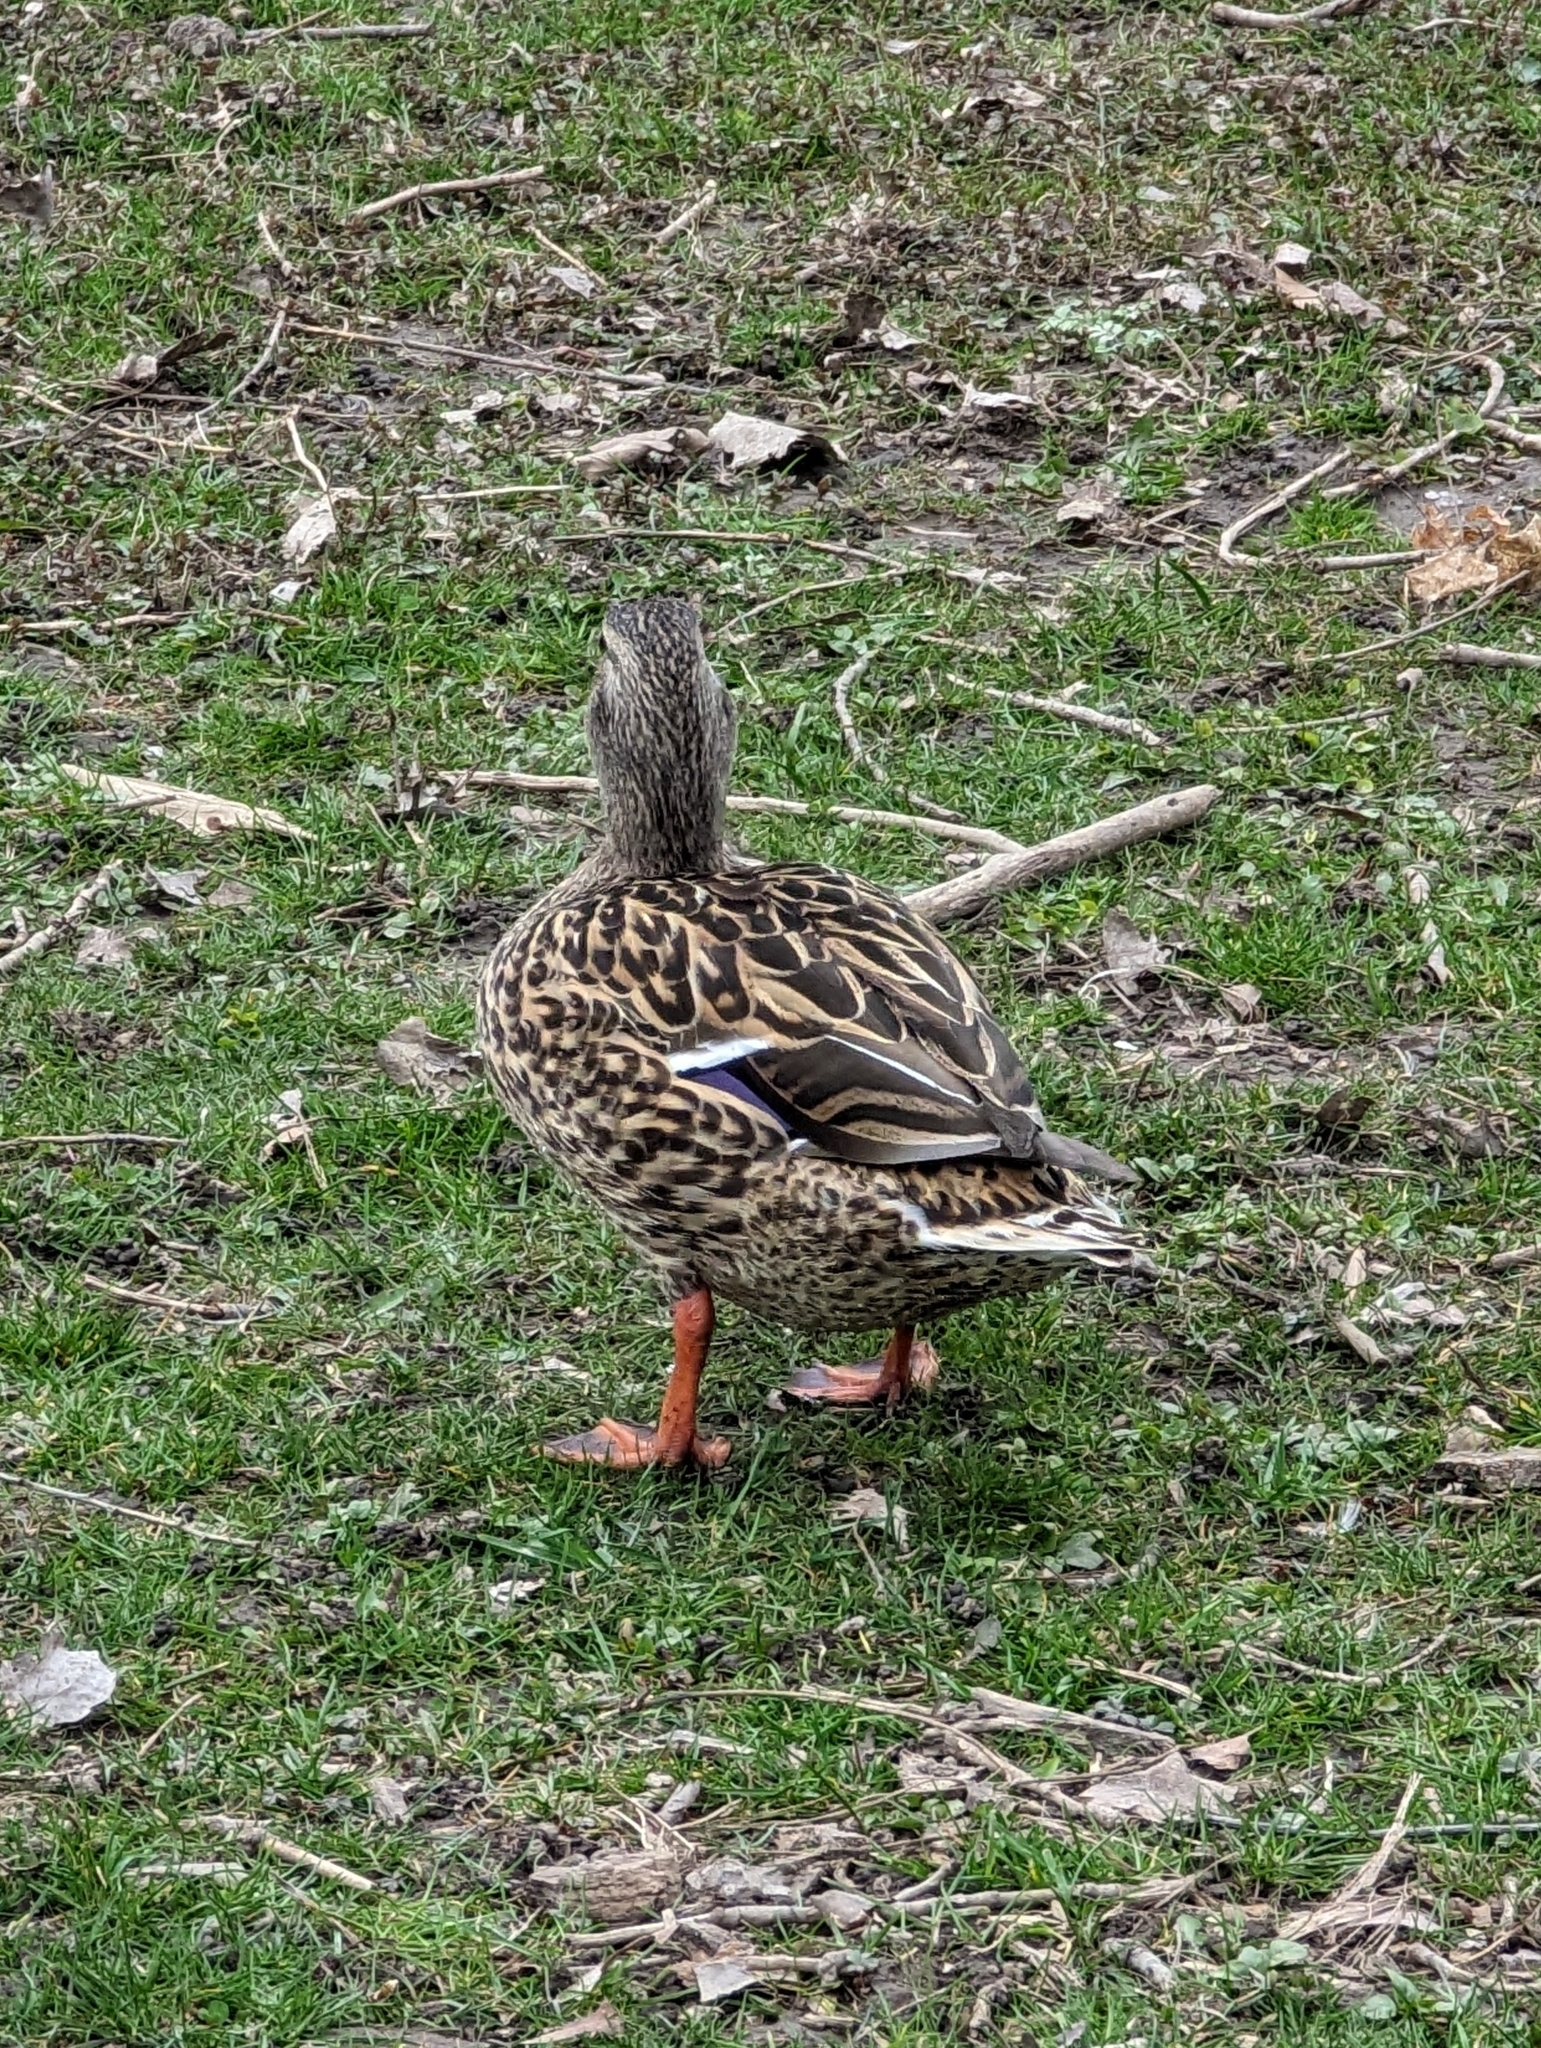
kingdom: Animalia
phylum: Chordata
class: Aves
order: Anseriformes
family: Anatidae
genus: Anas
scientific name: Anas platyrhynchos
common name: Mallard
